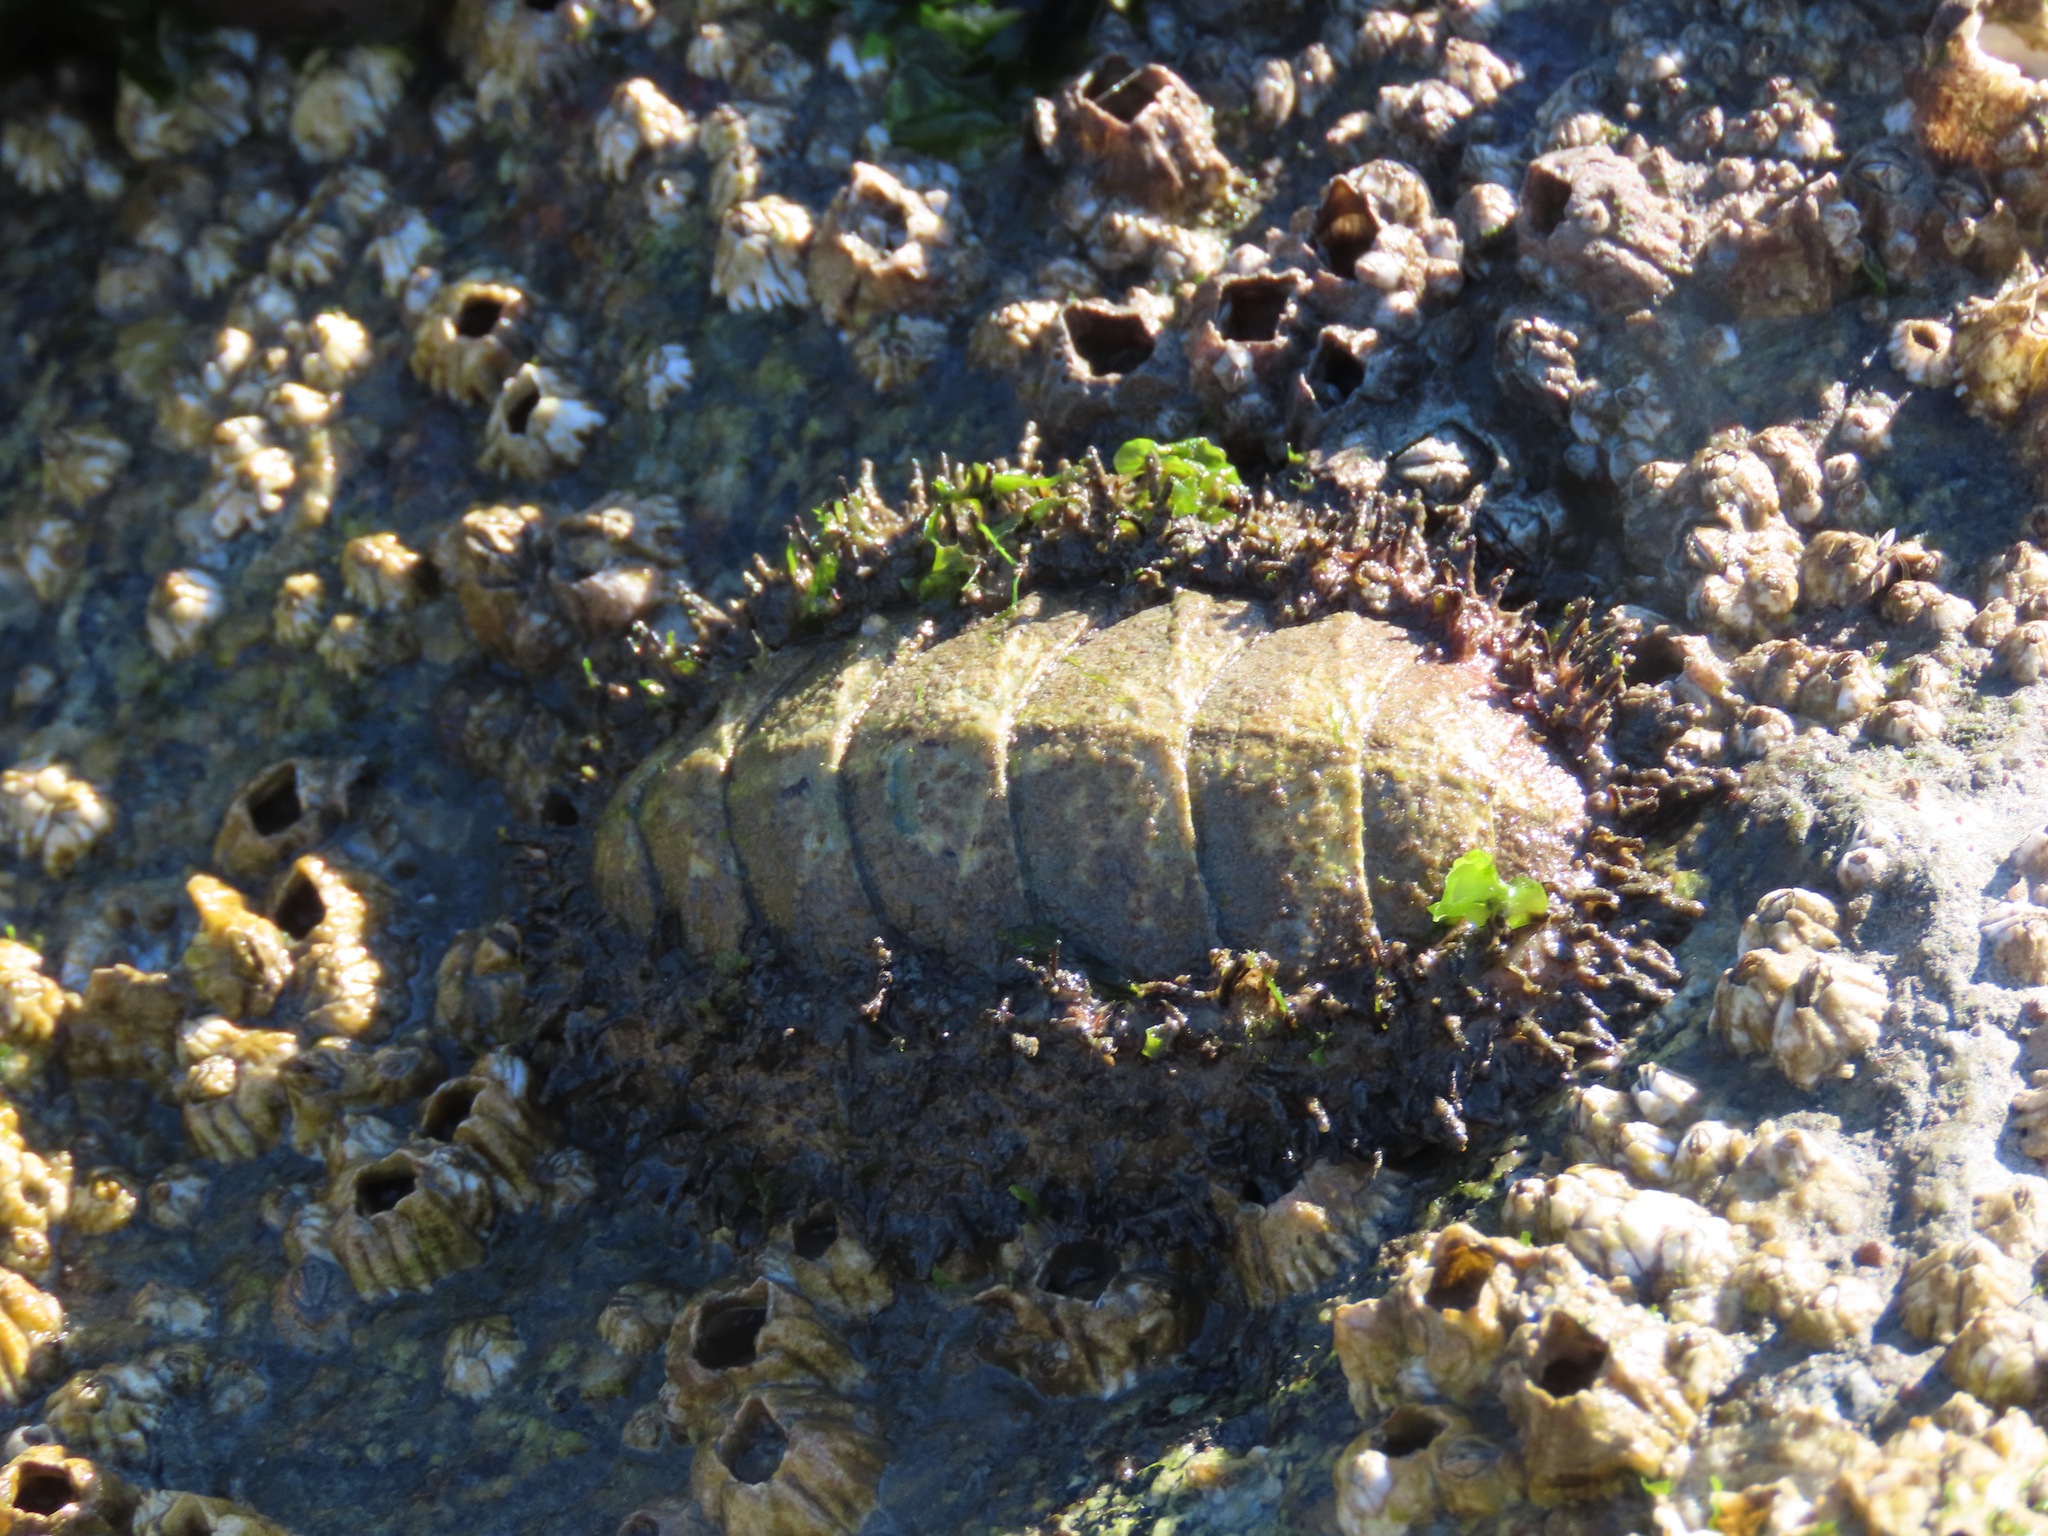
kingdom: Animalia
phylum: Mollusca
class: Polyplacophora
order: Chitonida
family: Mopaliidae
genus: Mopalia
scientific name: Mopalia muscosa
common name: Mossy chiton
